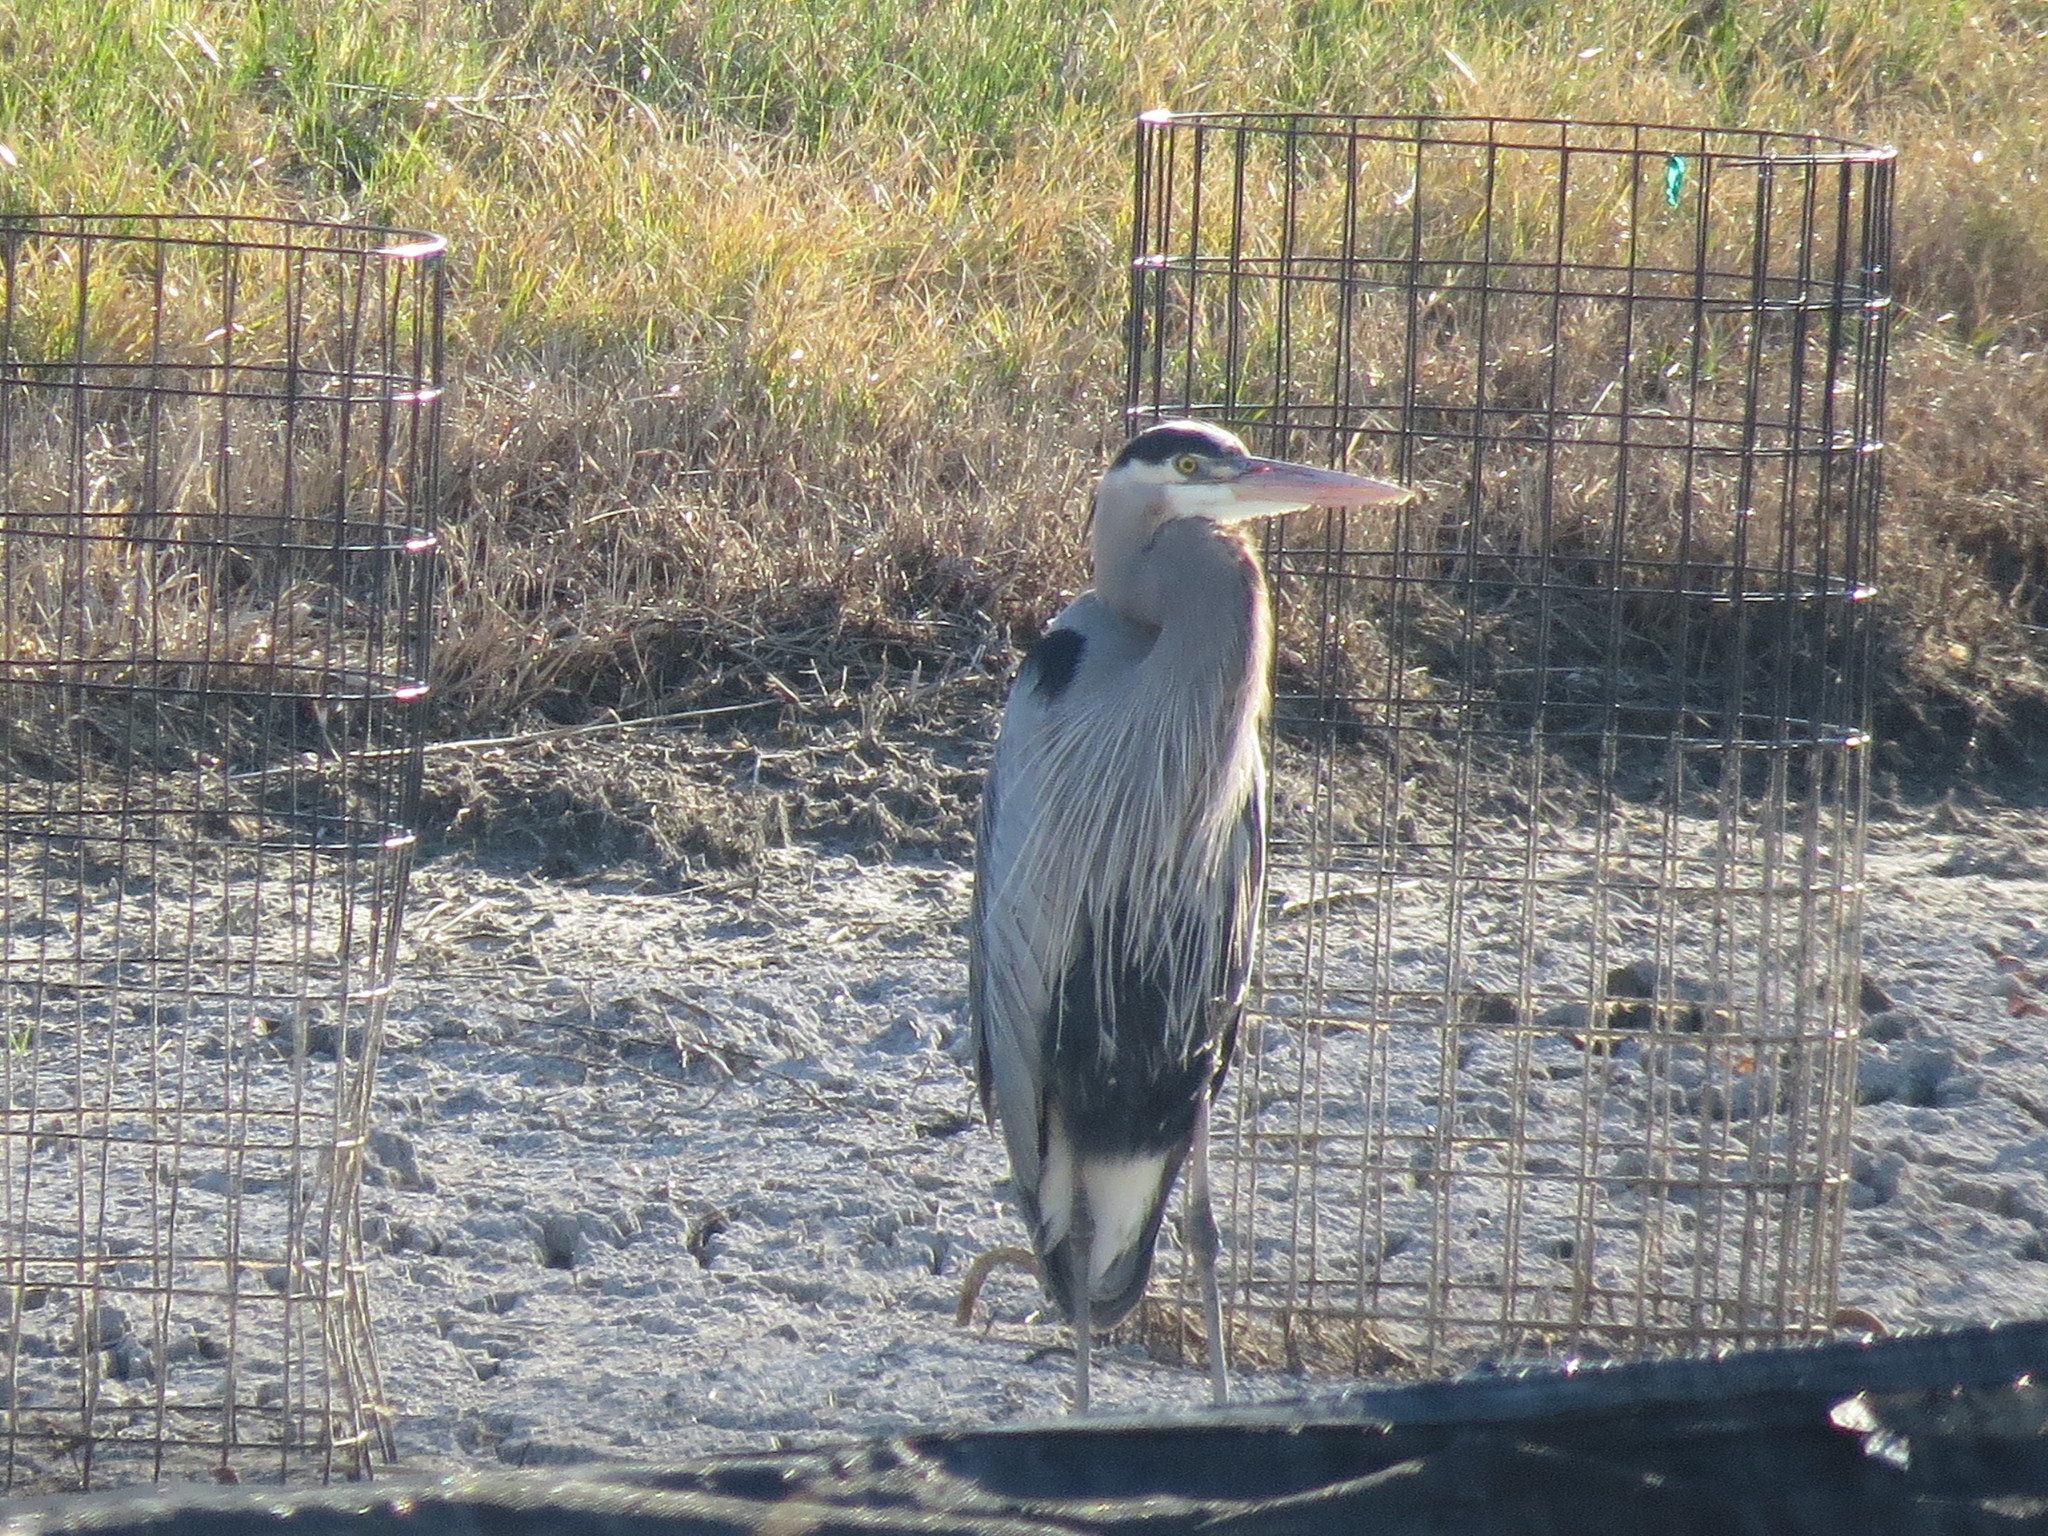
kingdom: Animalia
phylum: Chordata
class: Aves
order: Pelecaniformes
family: Ardeidae
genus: Ardea
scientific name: Ardea herodias
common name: Great blue heron
